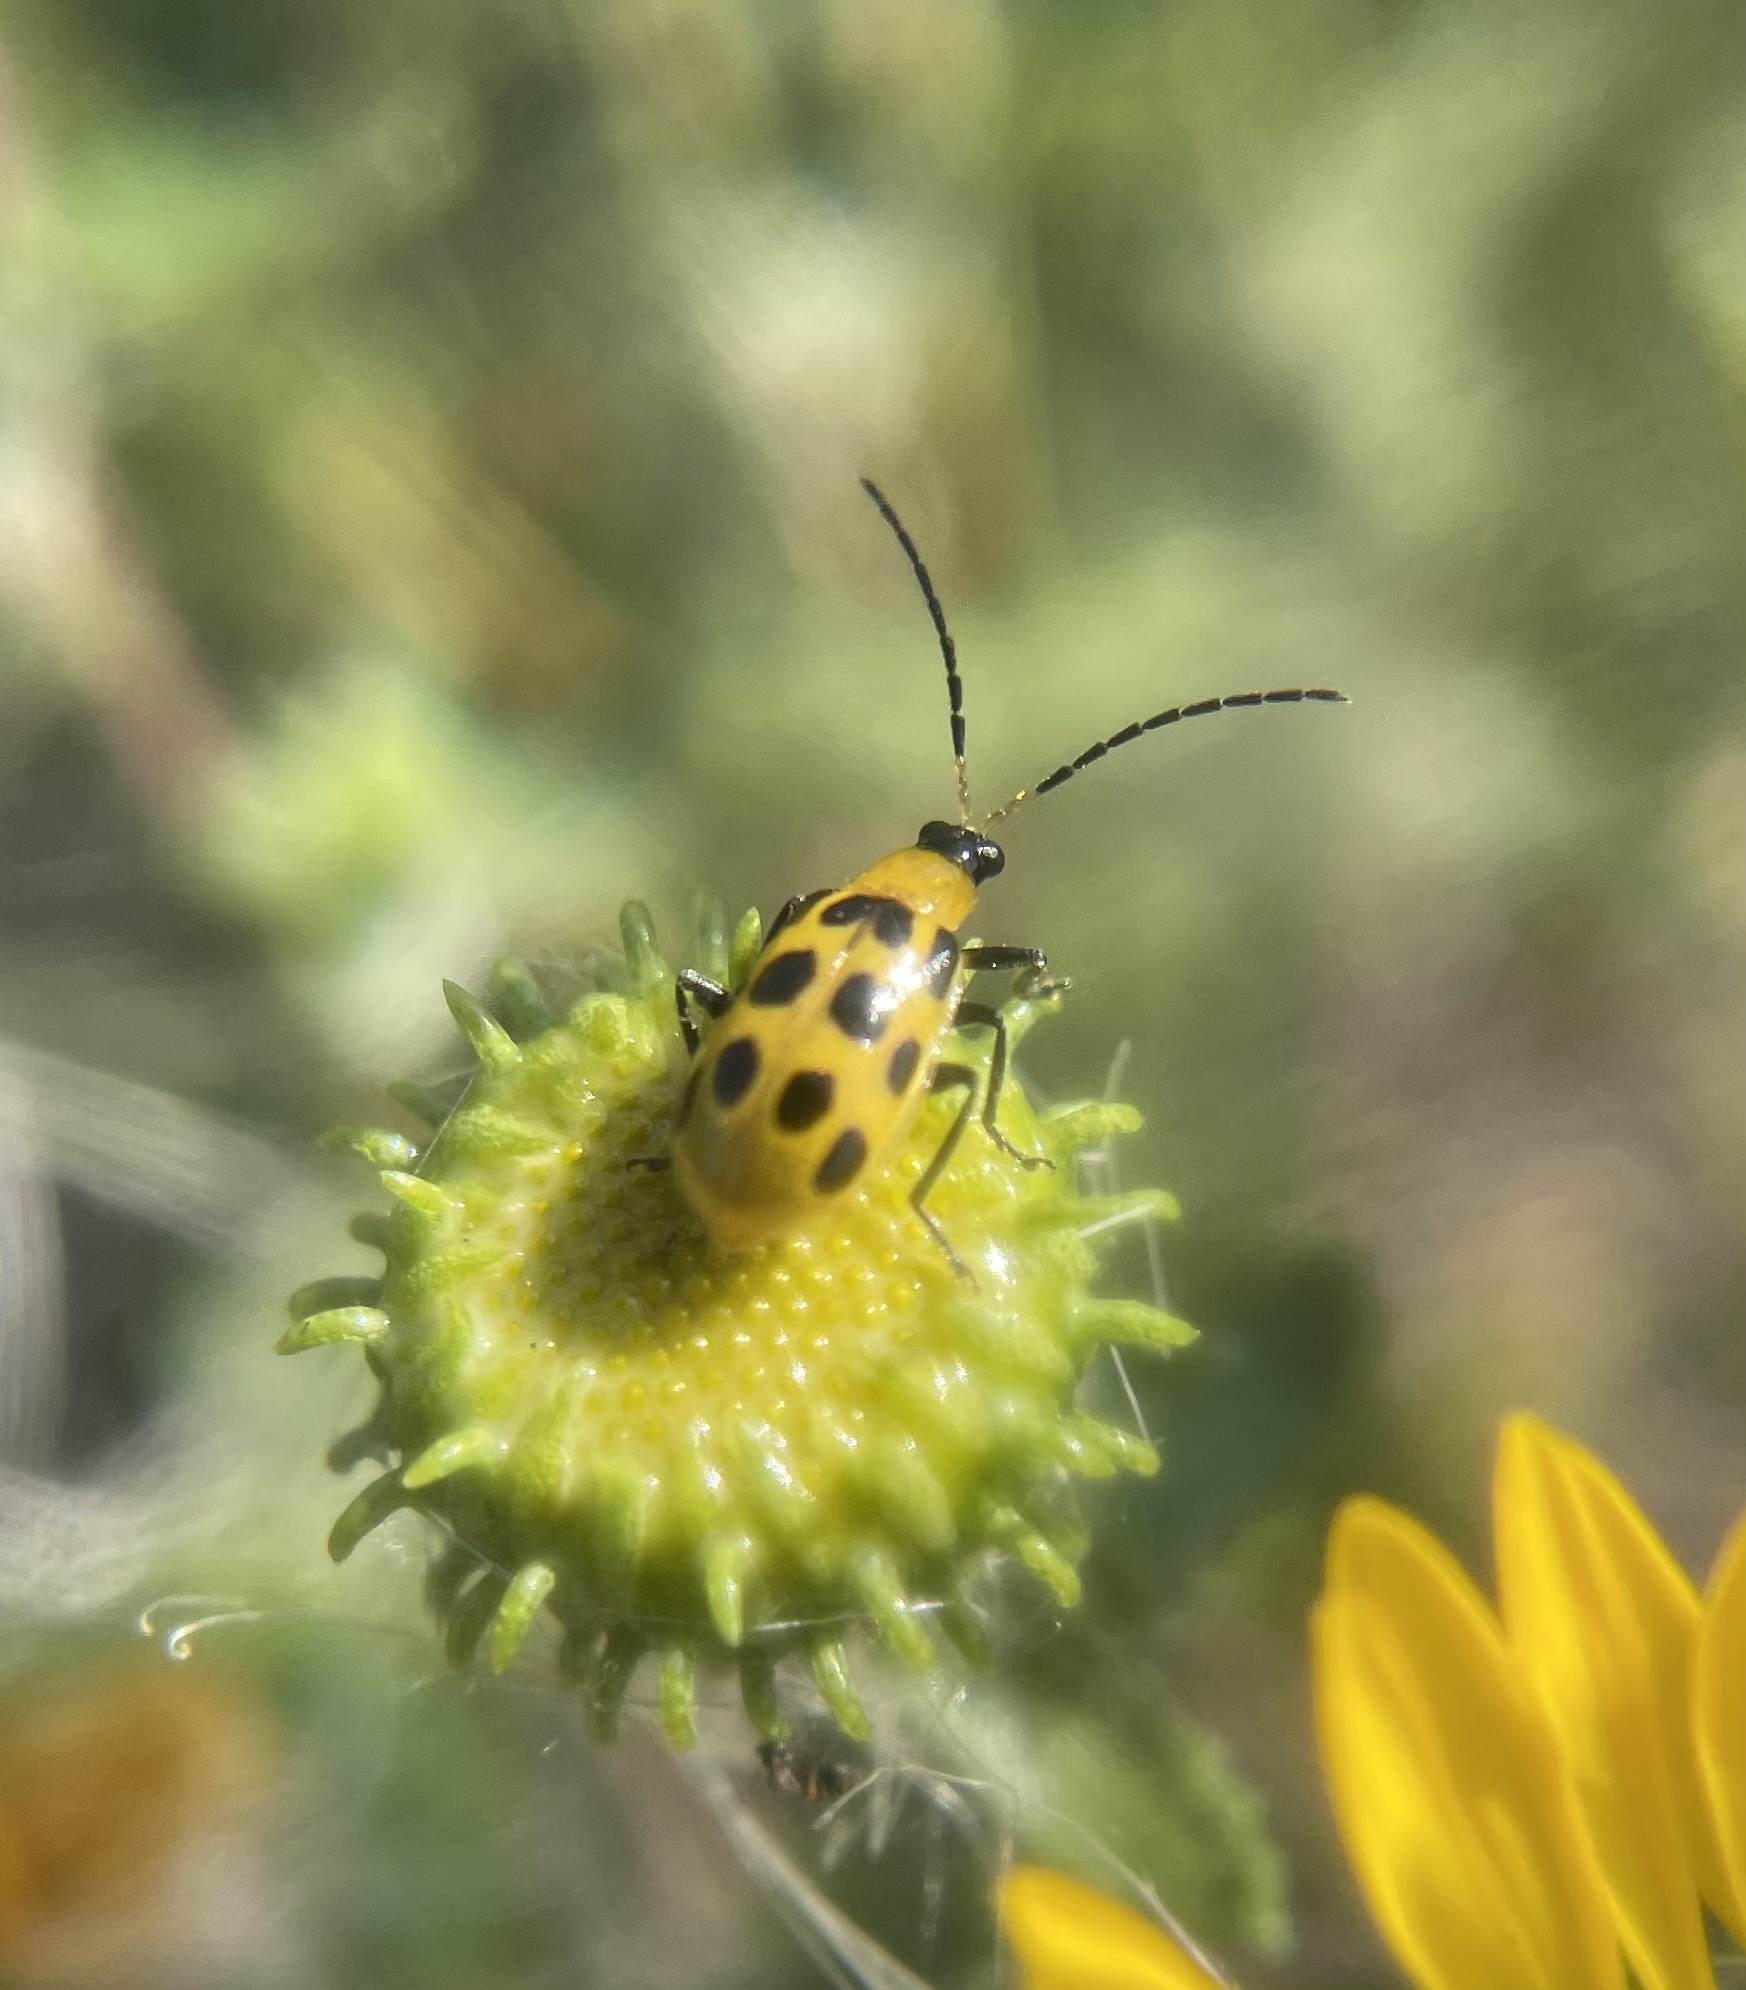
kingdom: Animalia
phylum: Arthropoda
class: Insecta
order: Coleoptera
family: Chrysomelidae
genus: Diabrotica
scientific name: Diabrotica undecimpunctata
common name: Spotted cucumber beetle
